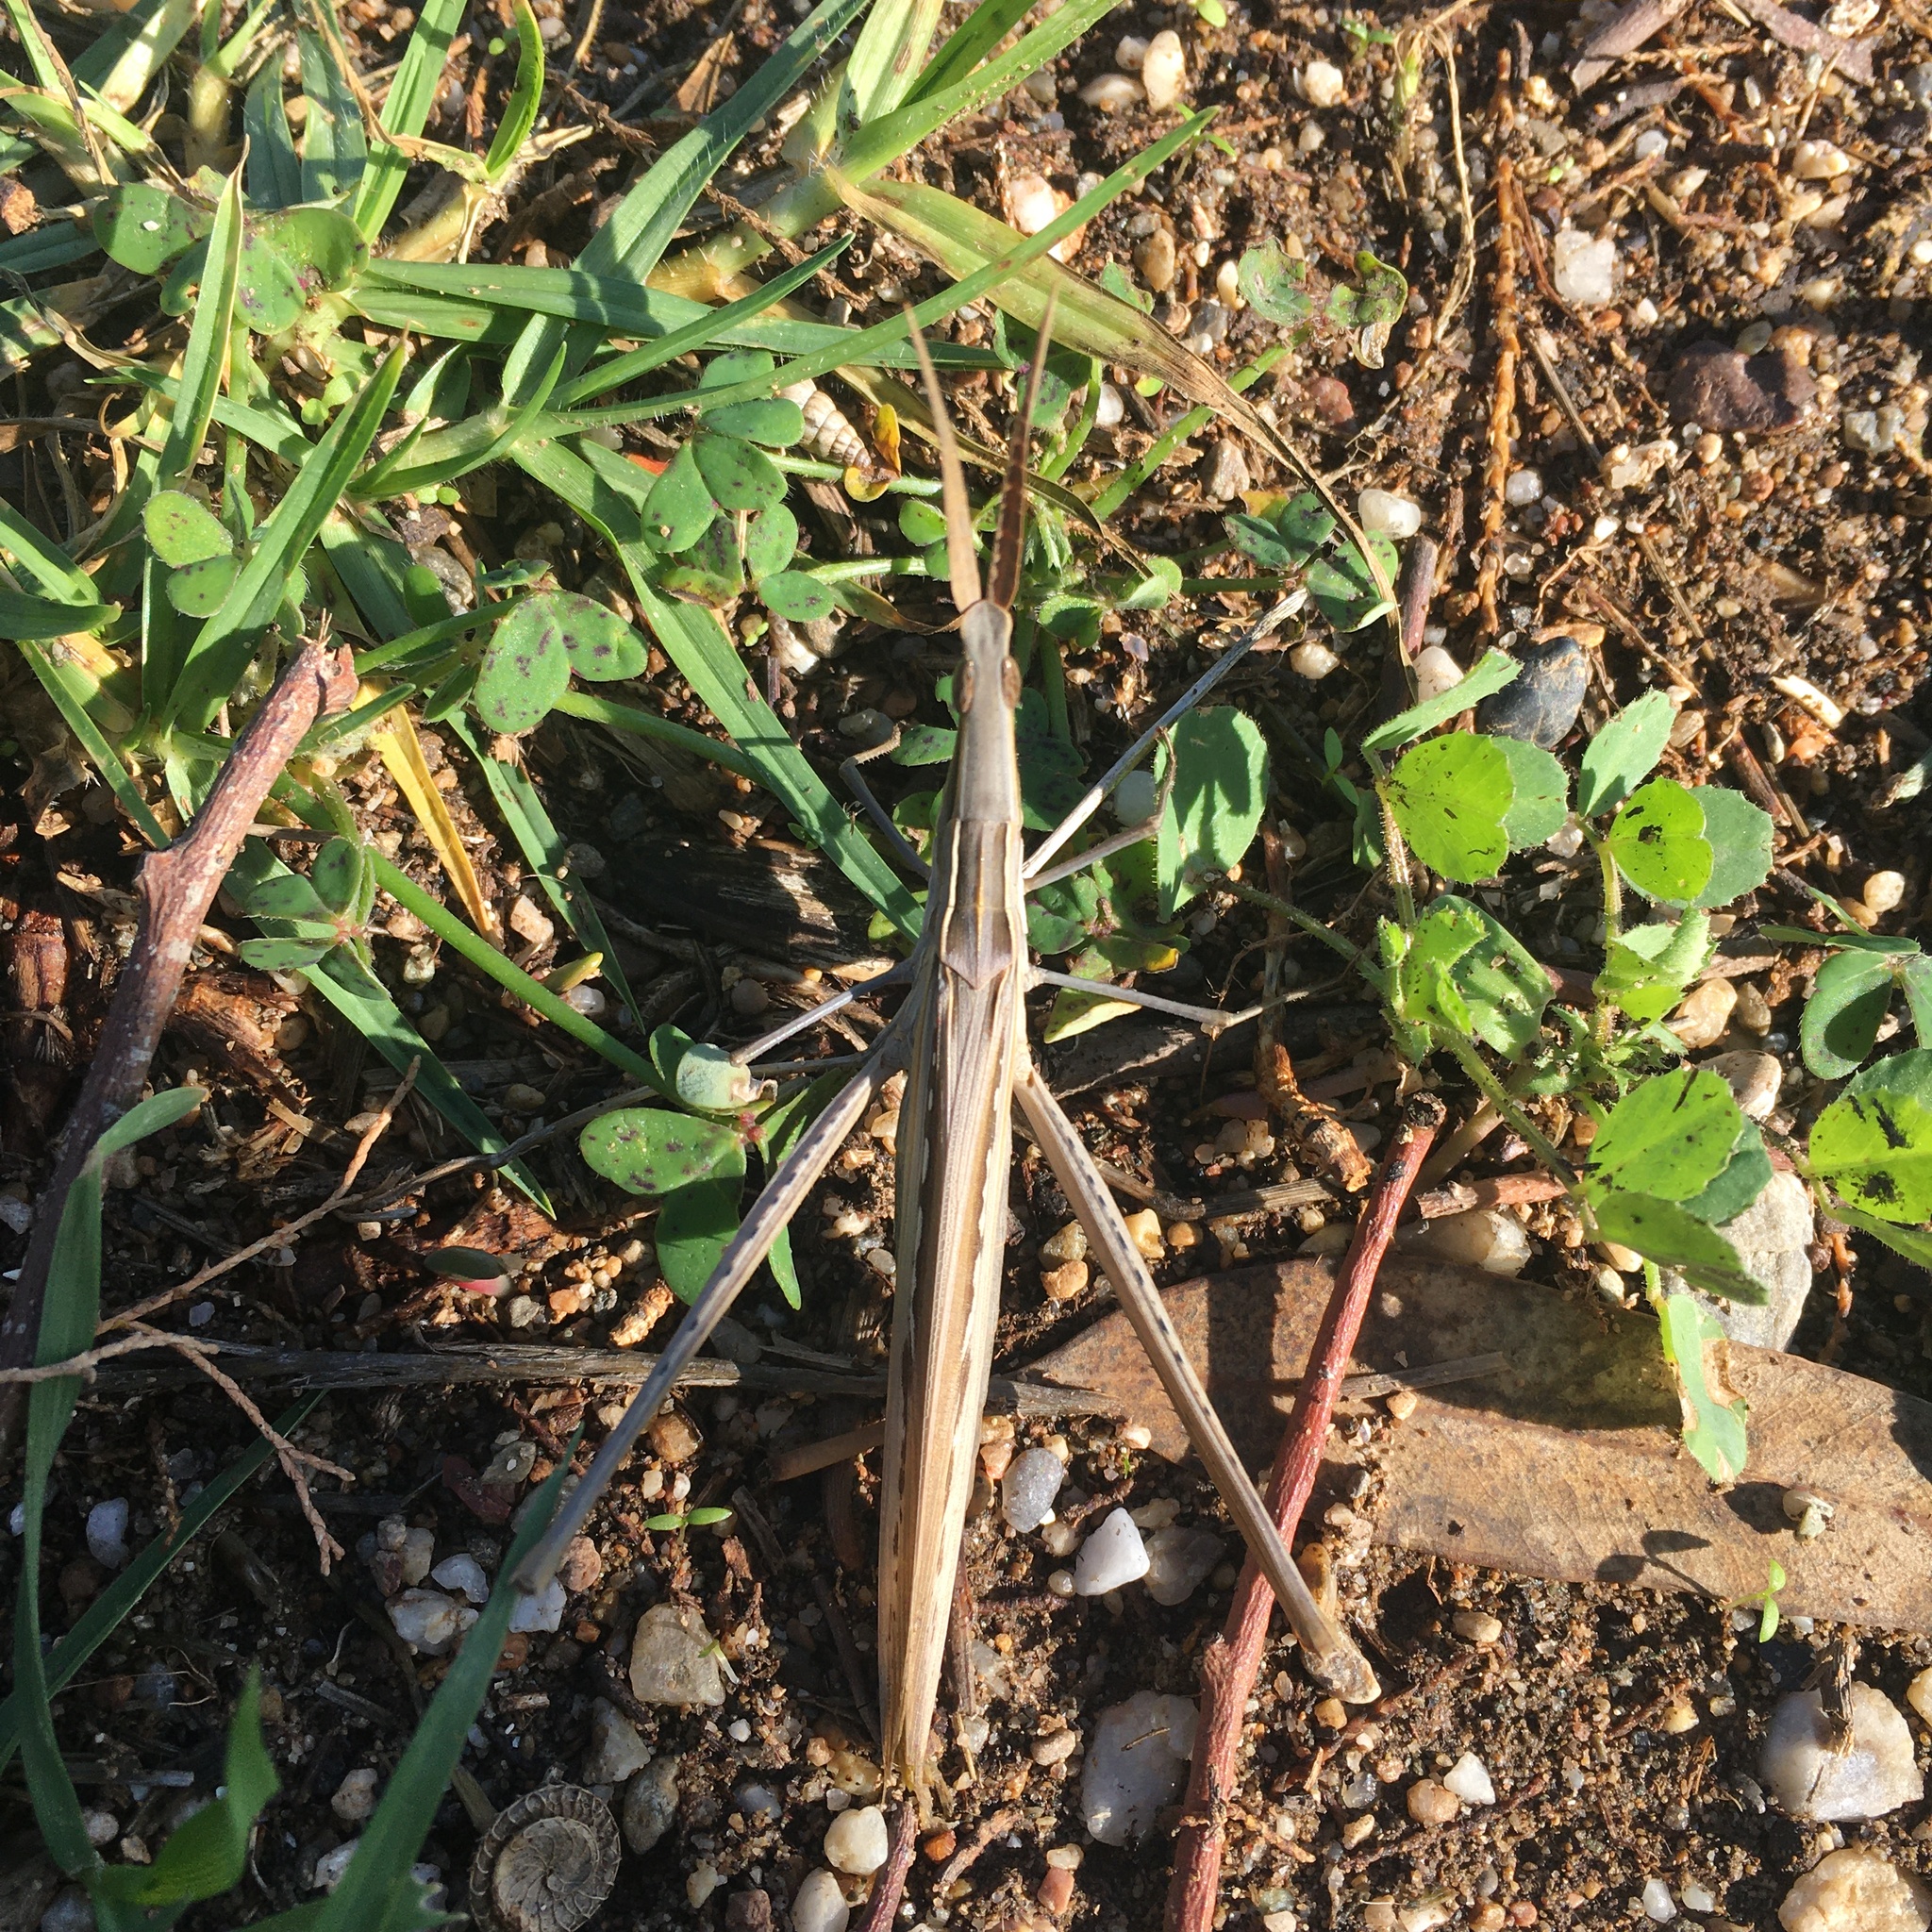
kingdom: Animalia
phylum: Arthropoda
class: Insecta
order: Orthoptera
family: Acrididae
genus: Acrida
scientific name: Acrida ungarica
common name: Common cone-headed grasshopper
